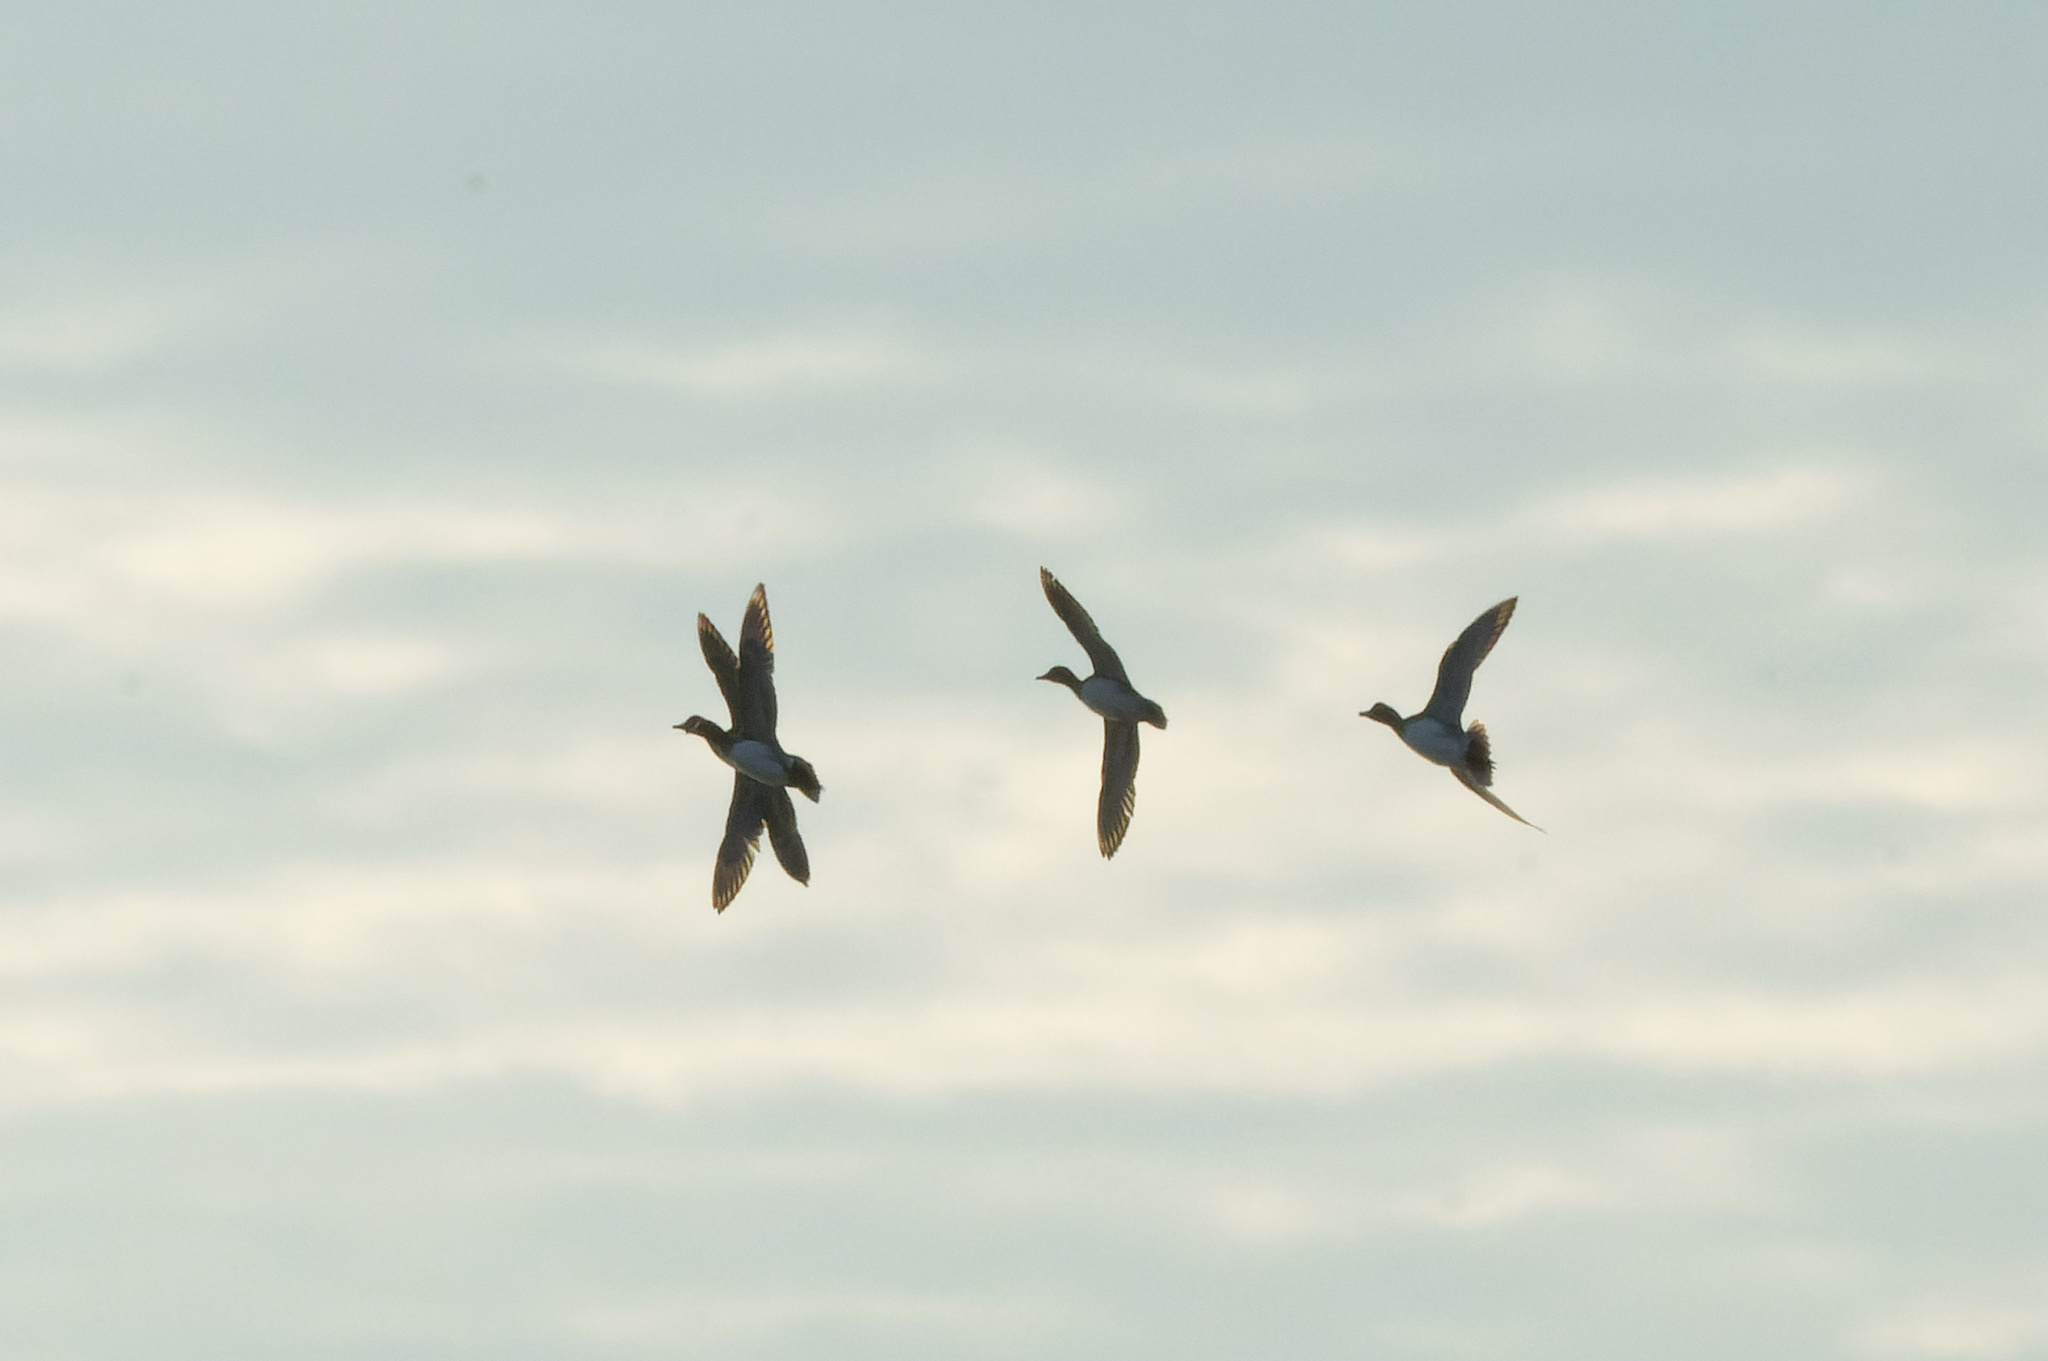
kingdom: Animalia
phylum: Chordata
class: Aves
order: Anseriformes
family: Anatidae
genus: Mareca
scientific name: Mareca penelope
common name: Eurasian wigeon
